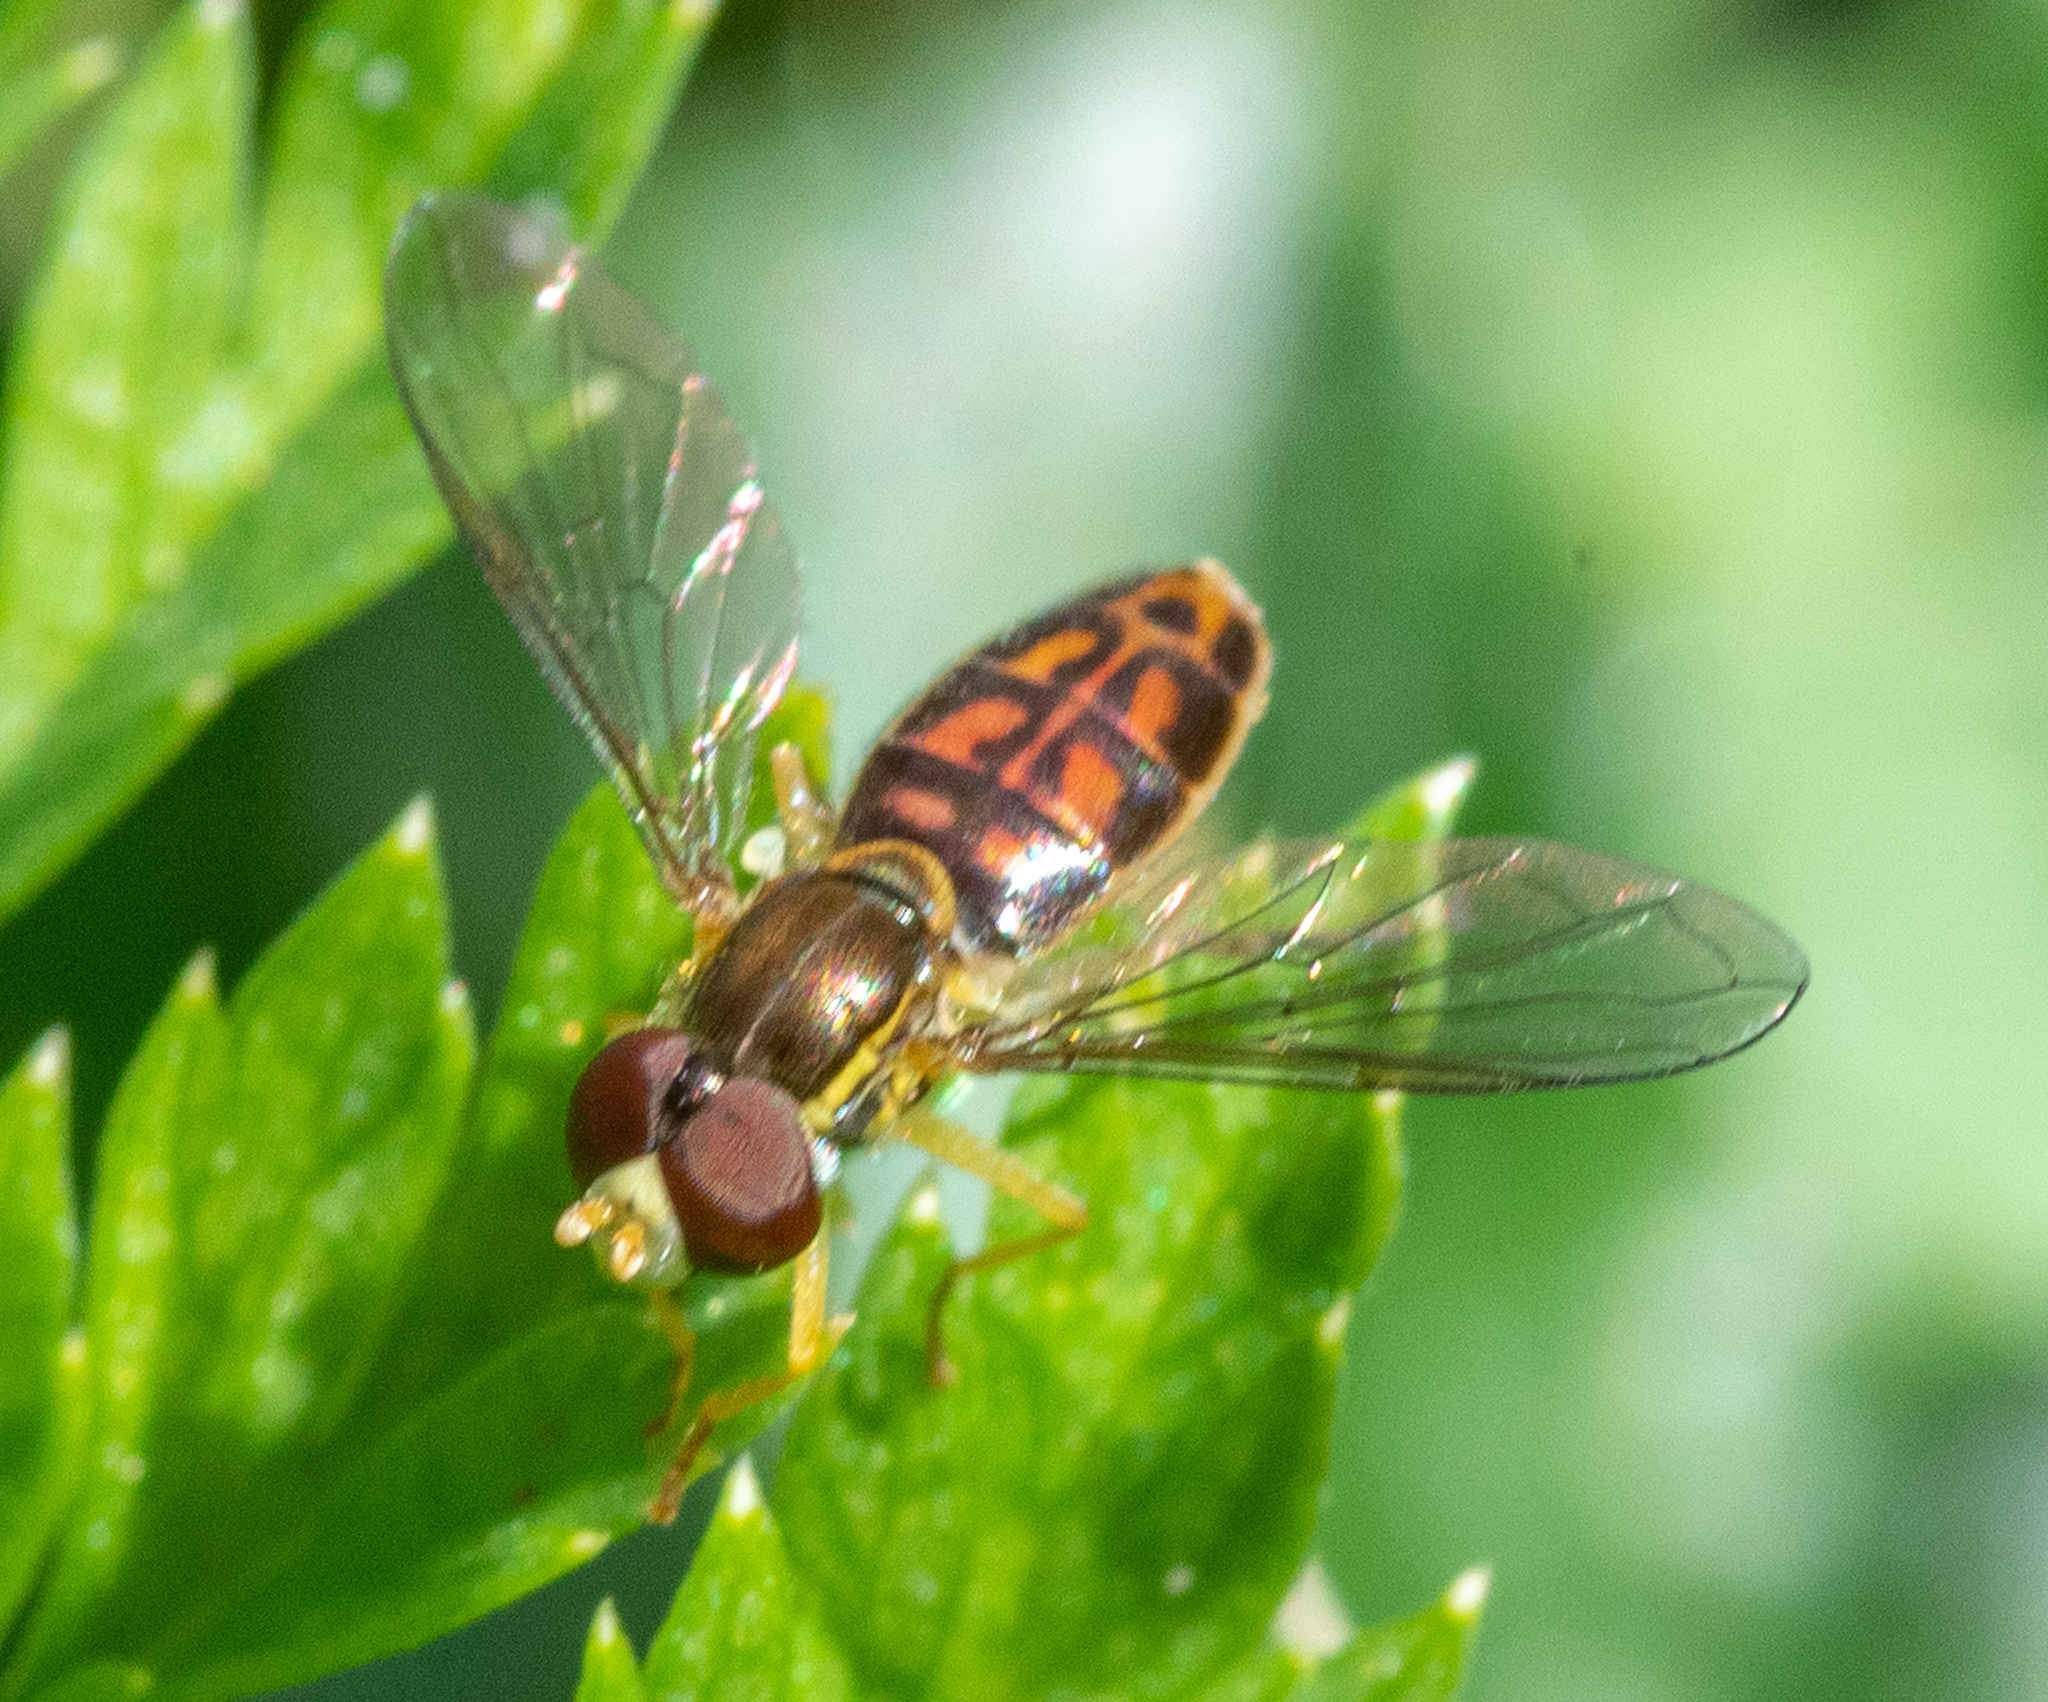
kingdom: Animalia
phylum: Arthropoda
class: Insecta
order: Diptera
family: Syrphidae
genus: Toxomerus
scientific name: Toxomerus marginatus
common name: Syrphid fly
